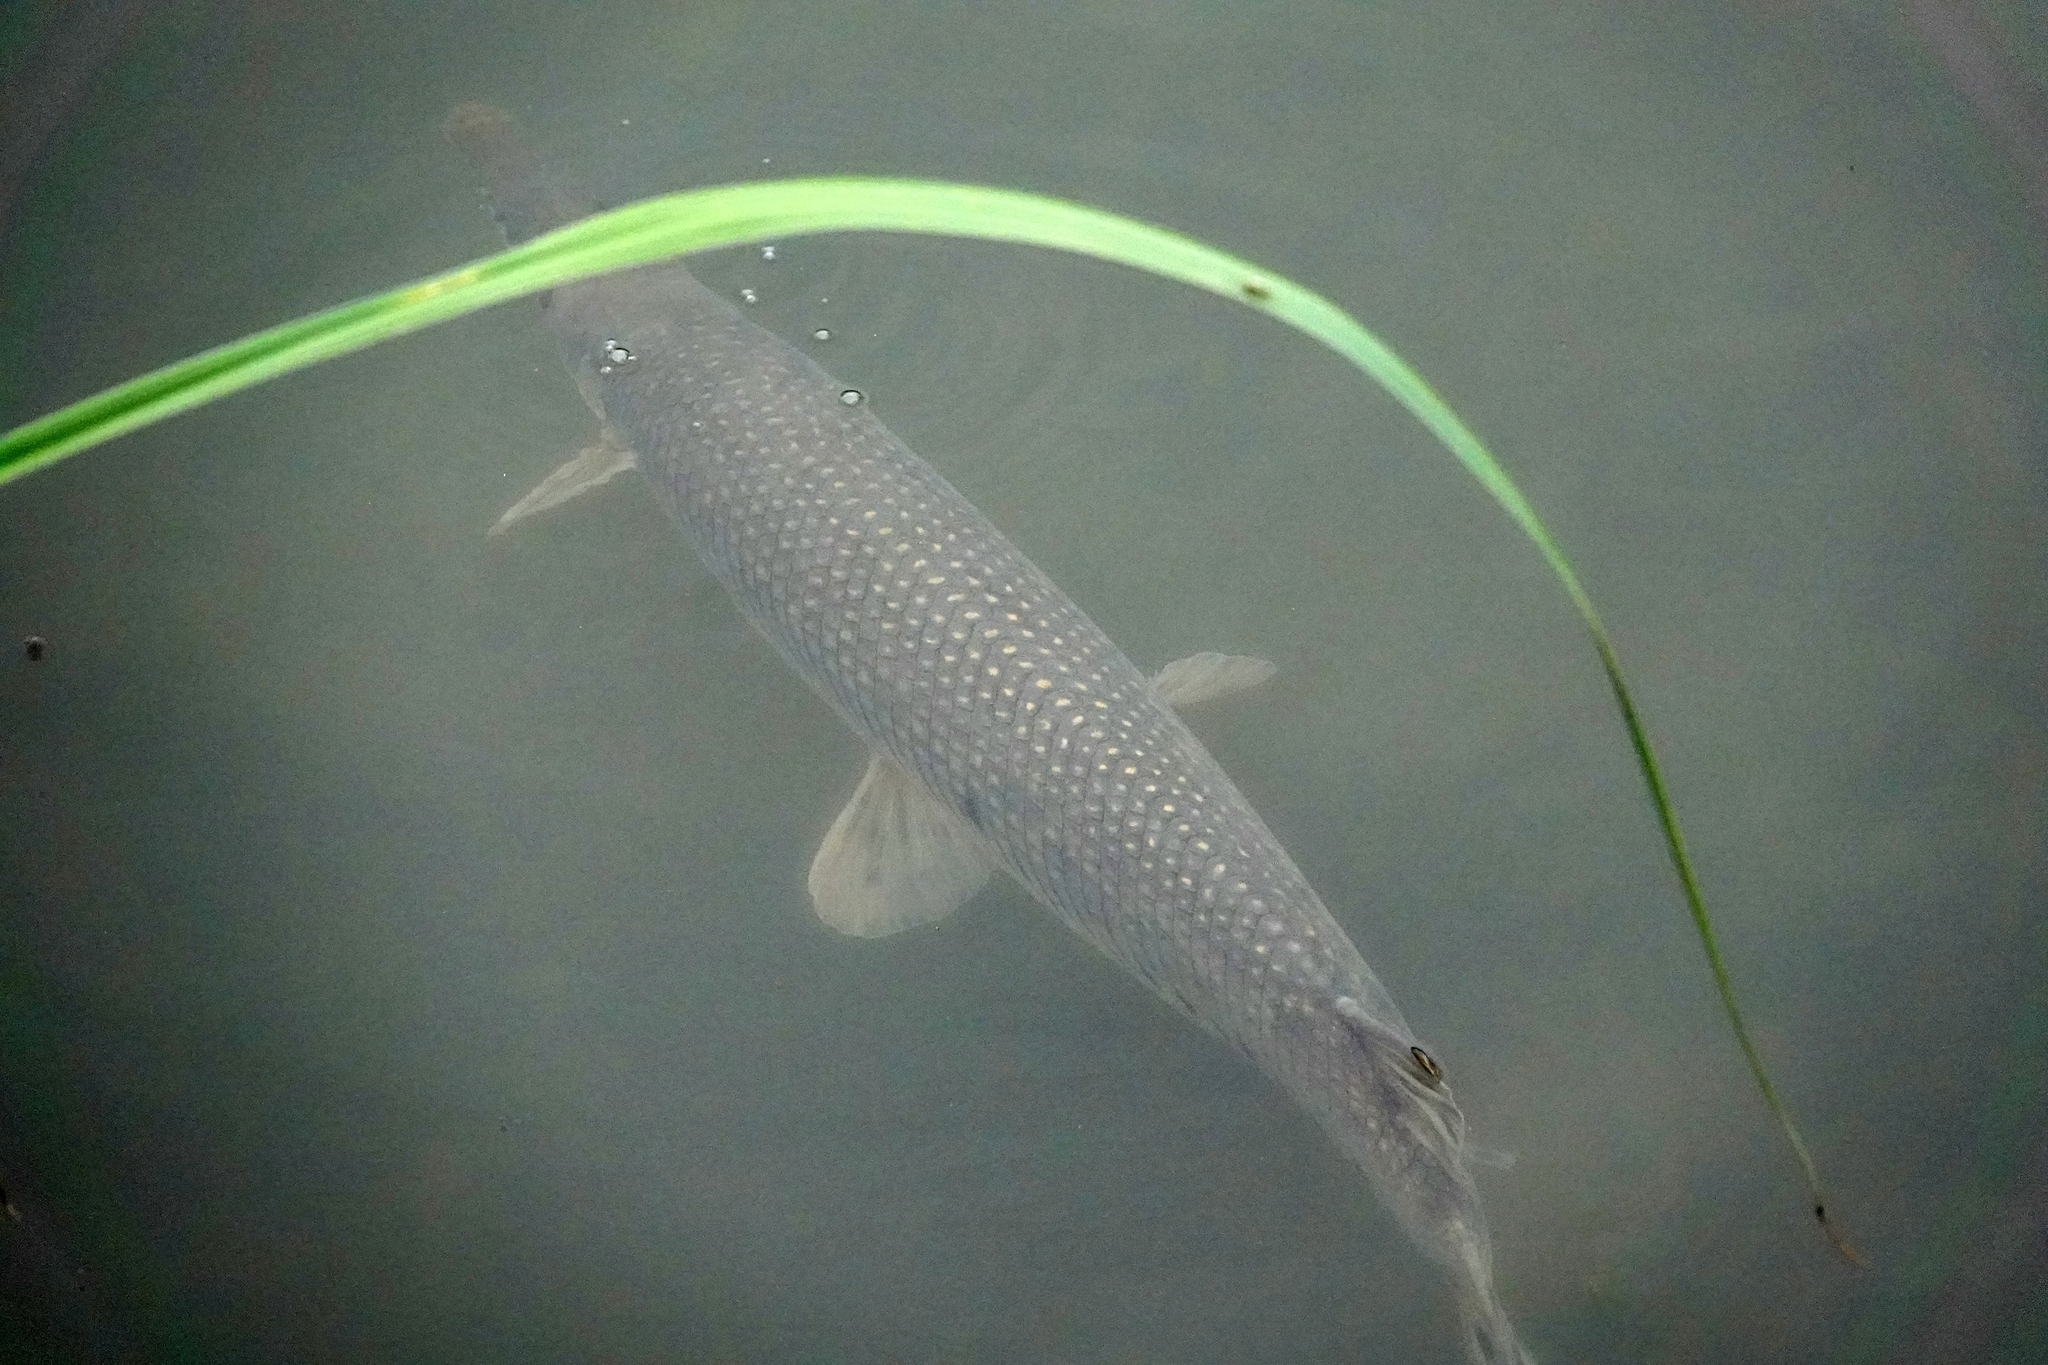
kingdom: Animalia
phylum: Chordata
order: Lepisosteiformes
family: Lepisosteidae
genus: Atractosteus
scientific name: Atractosteus spatula
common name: Alligator gar
